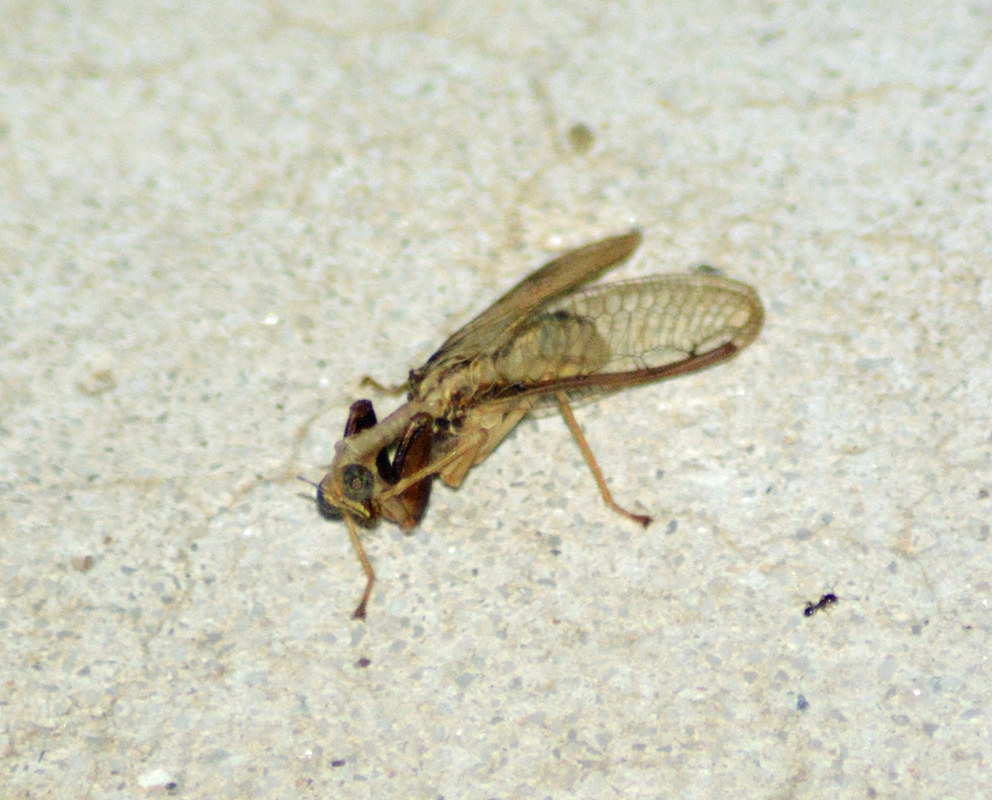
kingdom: Animalia
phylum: Arthropoda
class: Insecta
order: Neuroptera
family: Mantispidae
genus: Dicromantispa
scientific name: Dicromantispa interrupta
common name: Four-spotted mantidfly
